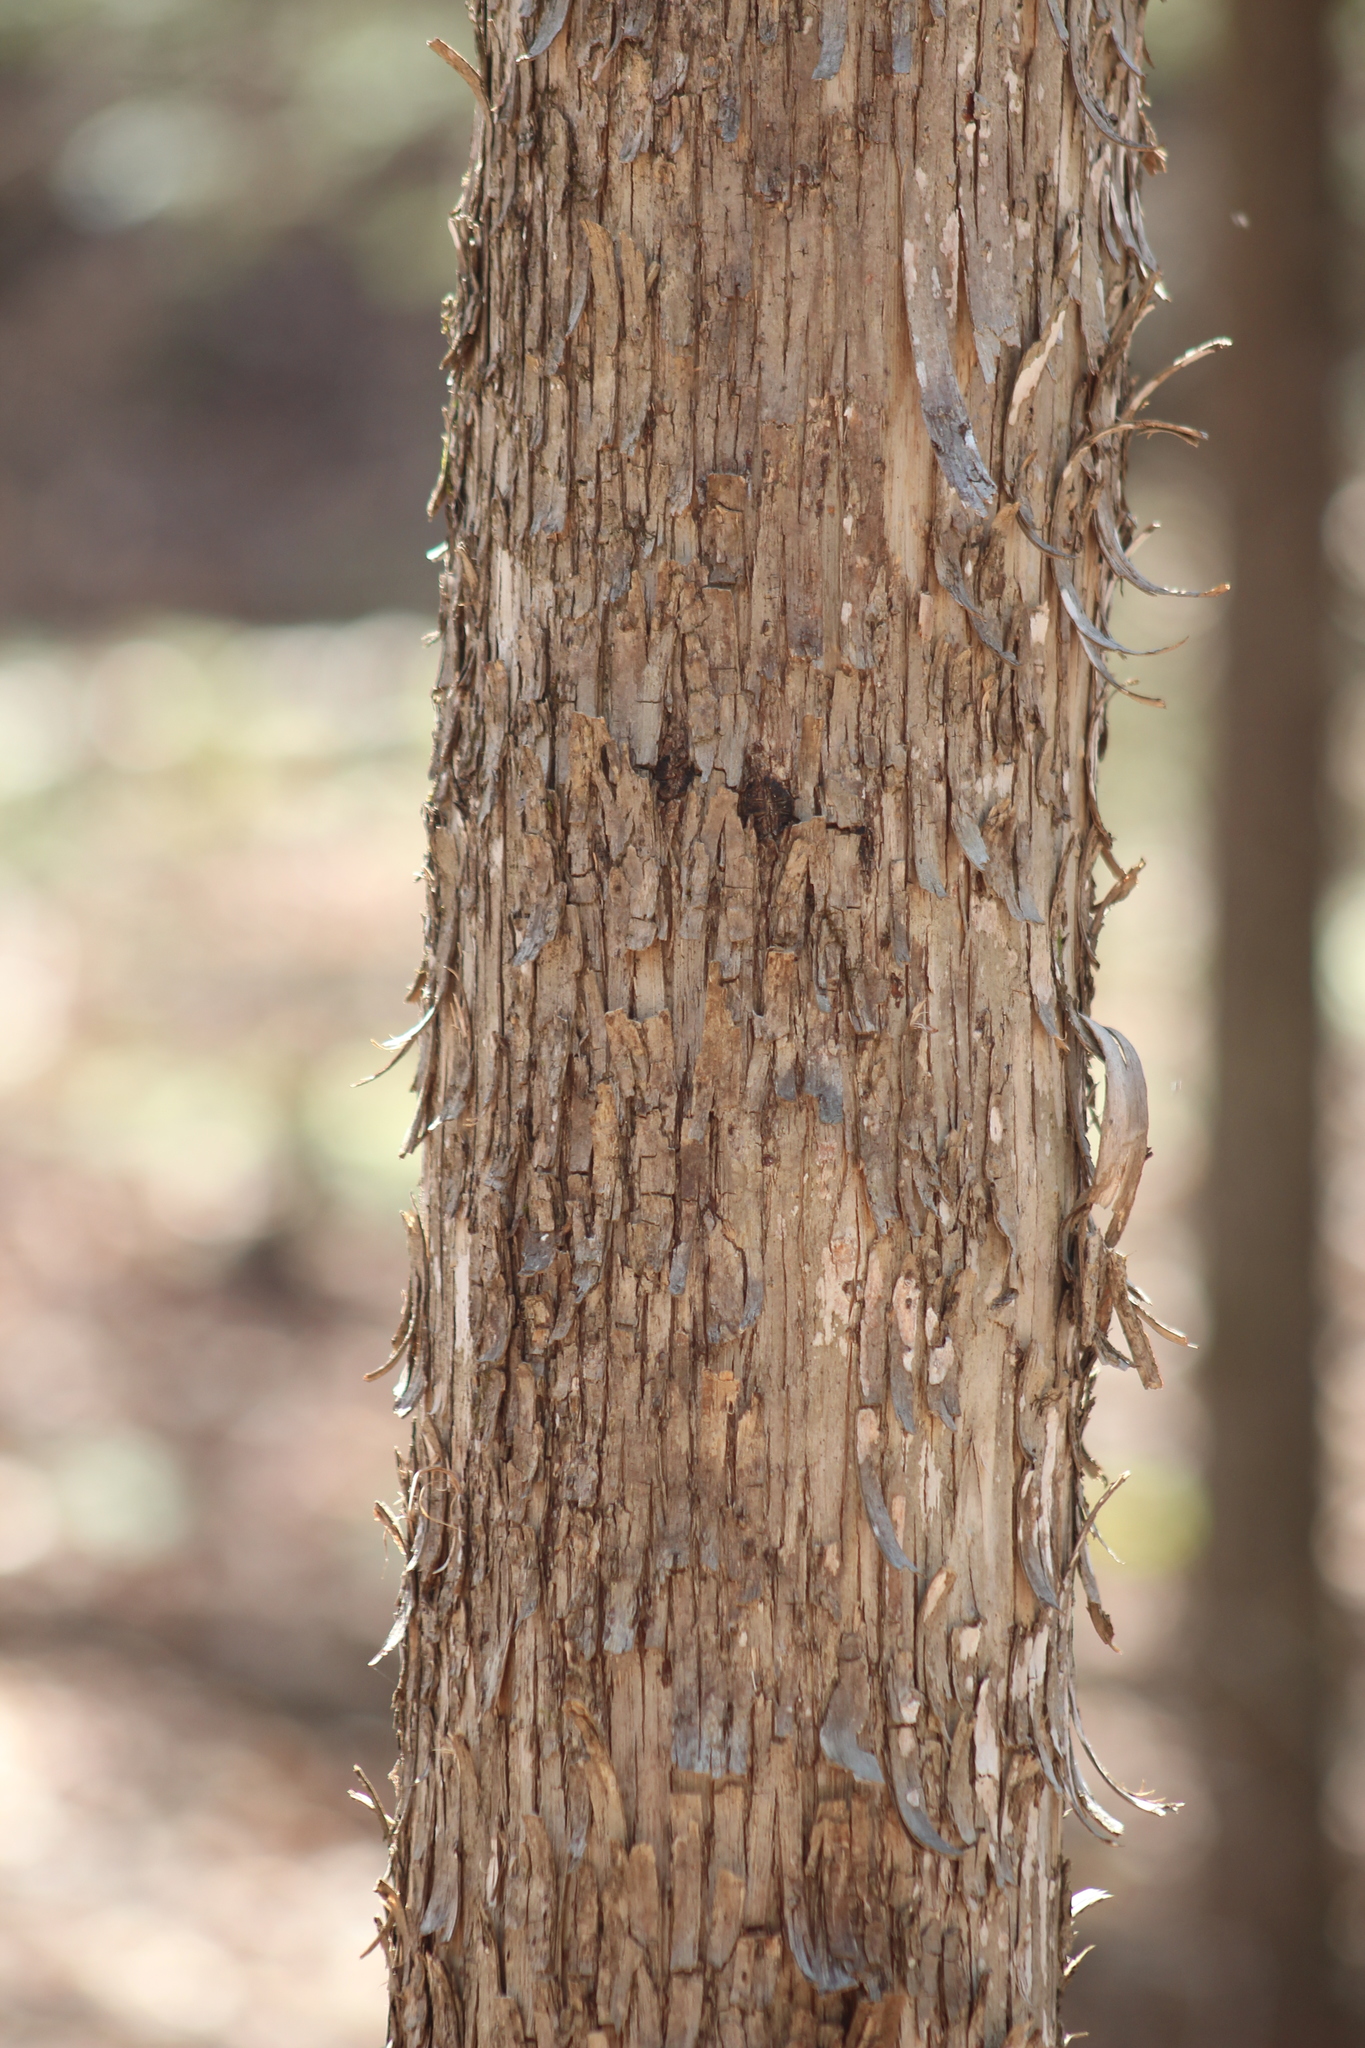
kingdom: Plantae
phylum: Tracheophyta
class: Magnoliopsida
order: Fagales
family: Betulaceae
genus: Ostrya
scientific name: Ostrya virginiana
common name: Ironwood
